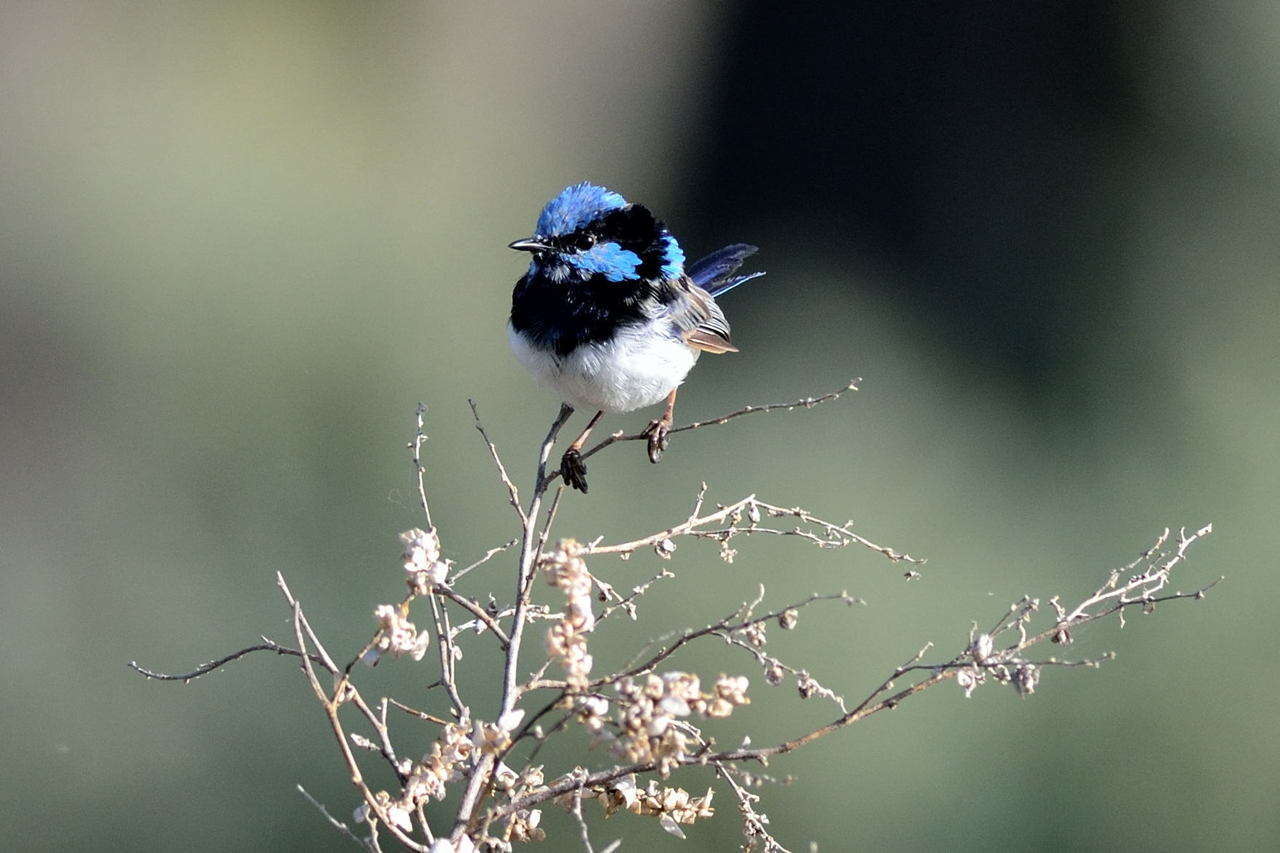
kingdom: Animalia
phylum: Chordata
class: Aves
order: Passeriformes
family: Maluridae
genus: Malurus
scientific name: Malurus cyaneus
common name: Superb fairywren
